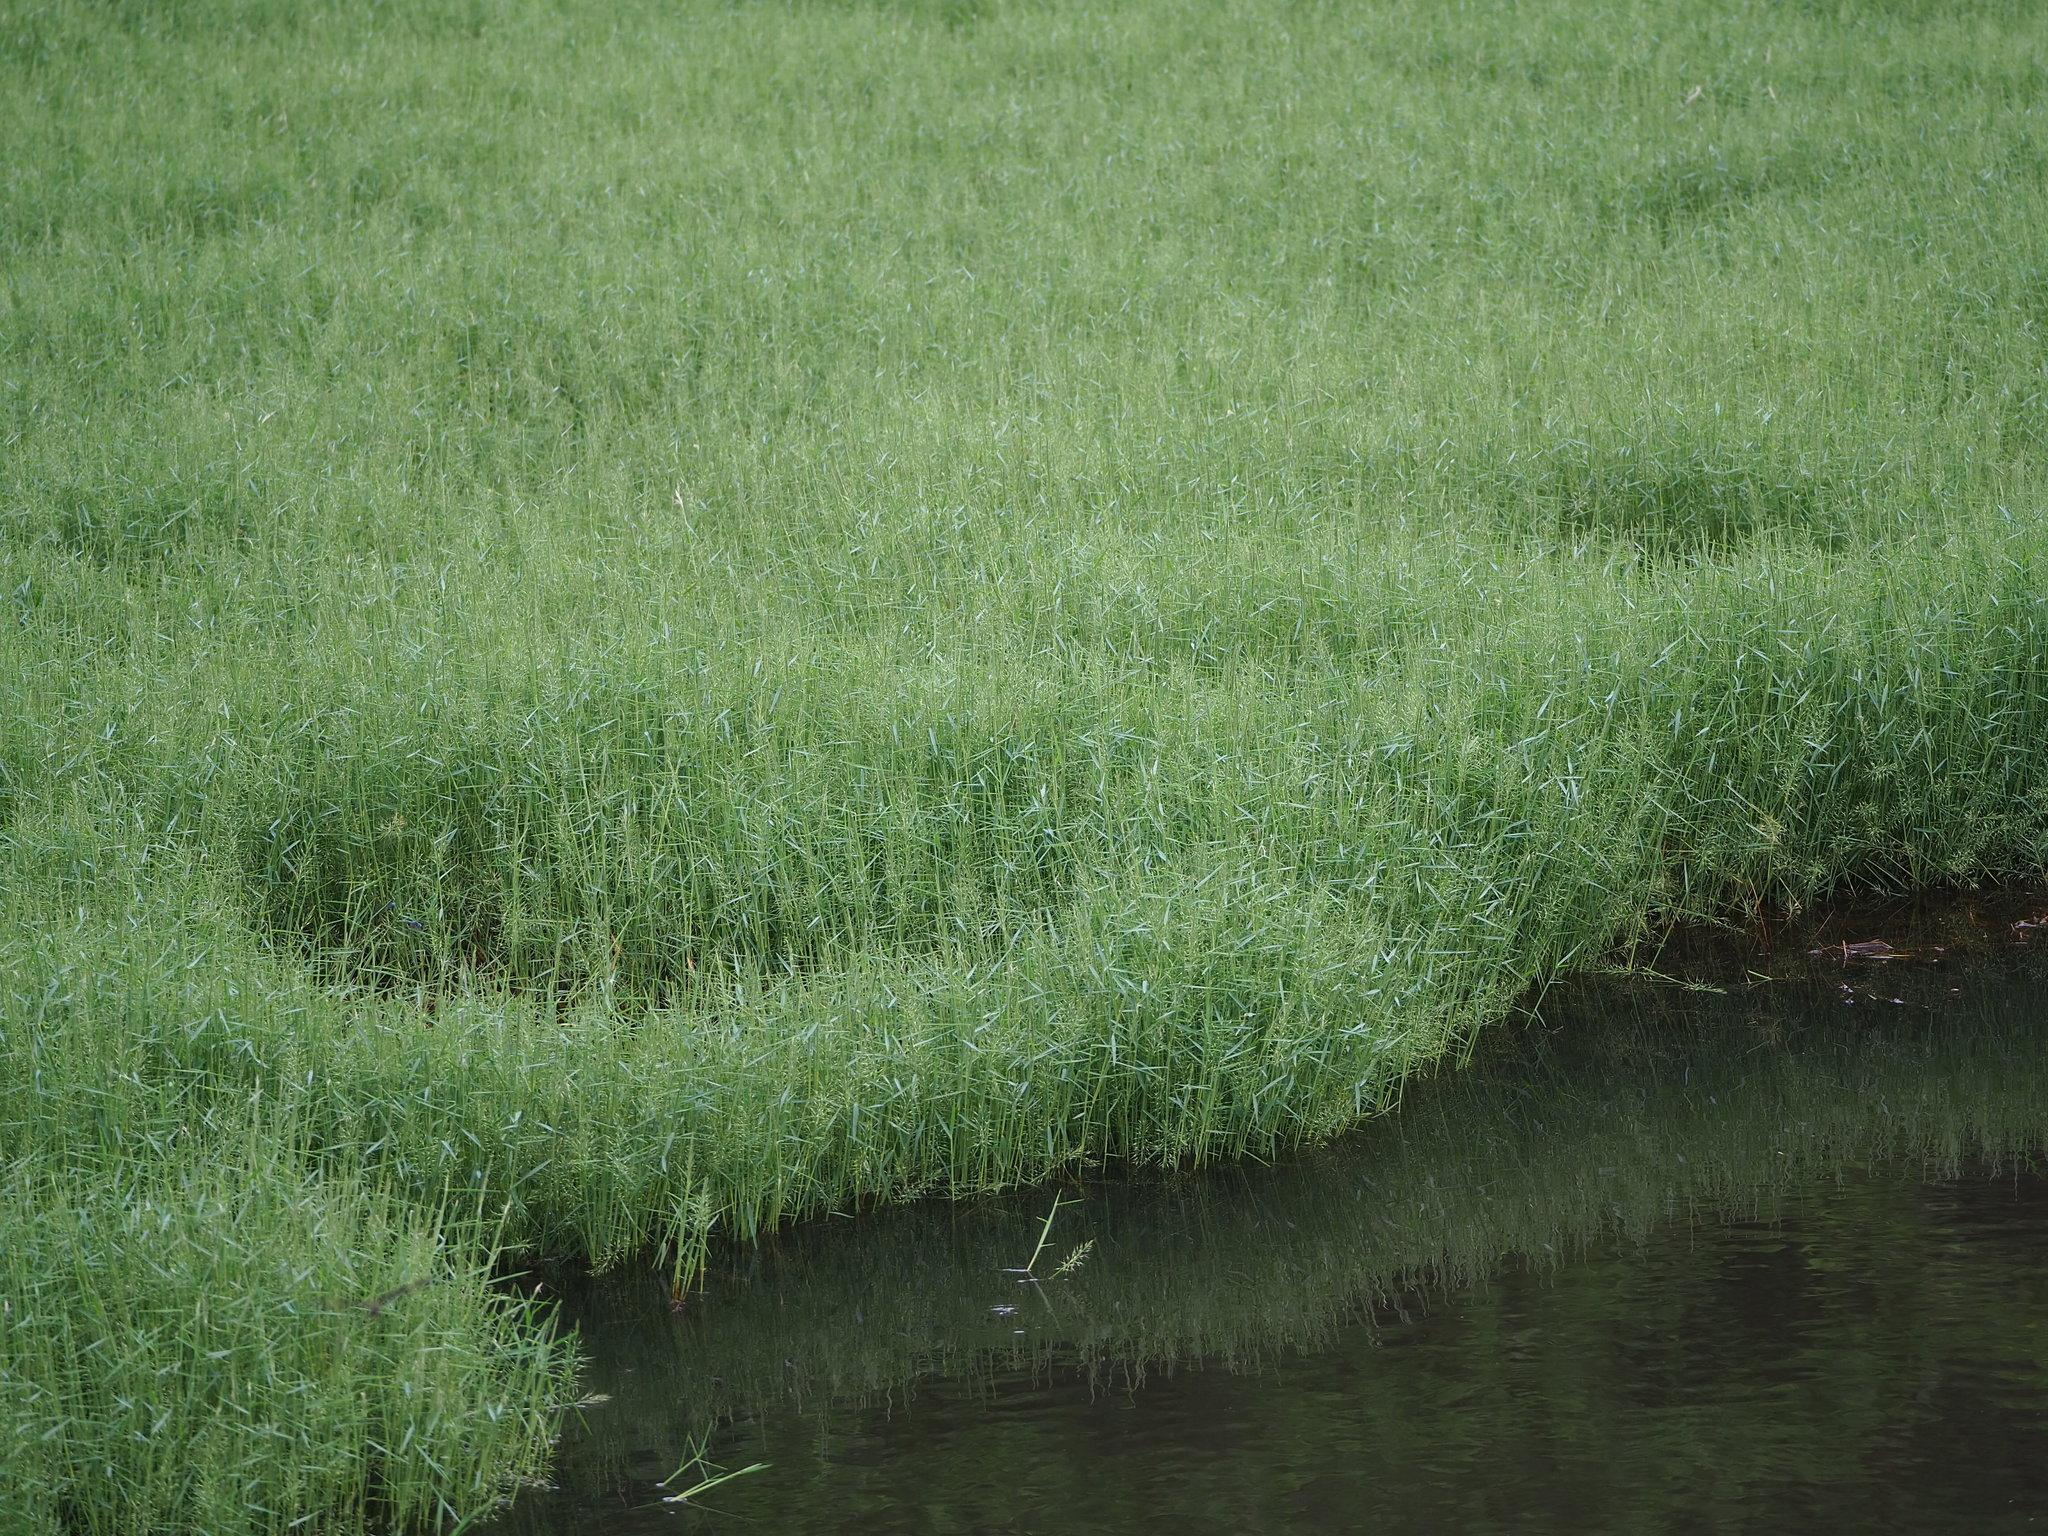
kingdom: Plantae
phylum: Tracheophyta
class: Liliopsida
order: Poales
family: Poaceae
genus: Pseudoraphis
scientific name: Pseudoraphis brunoniana
